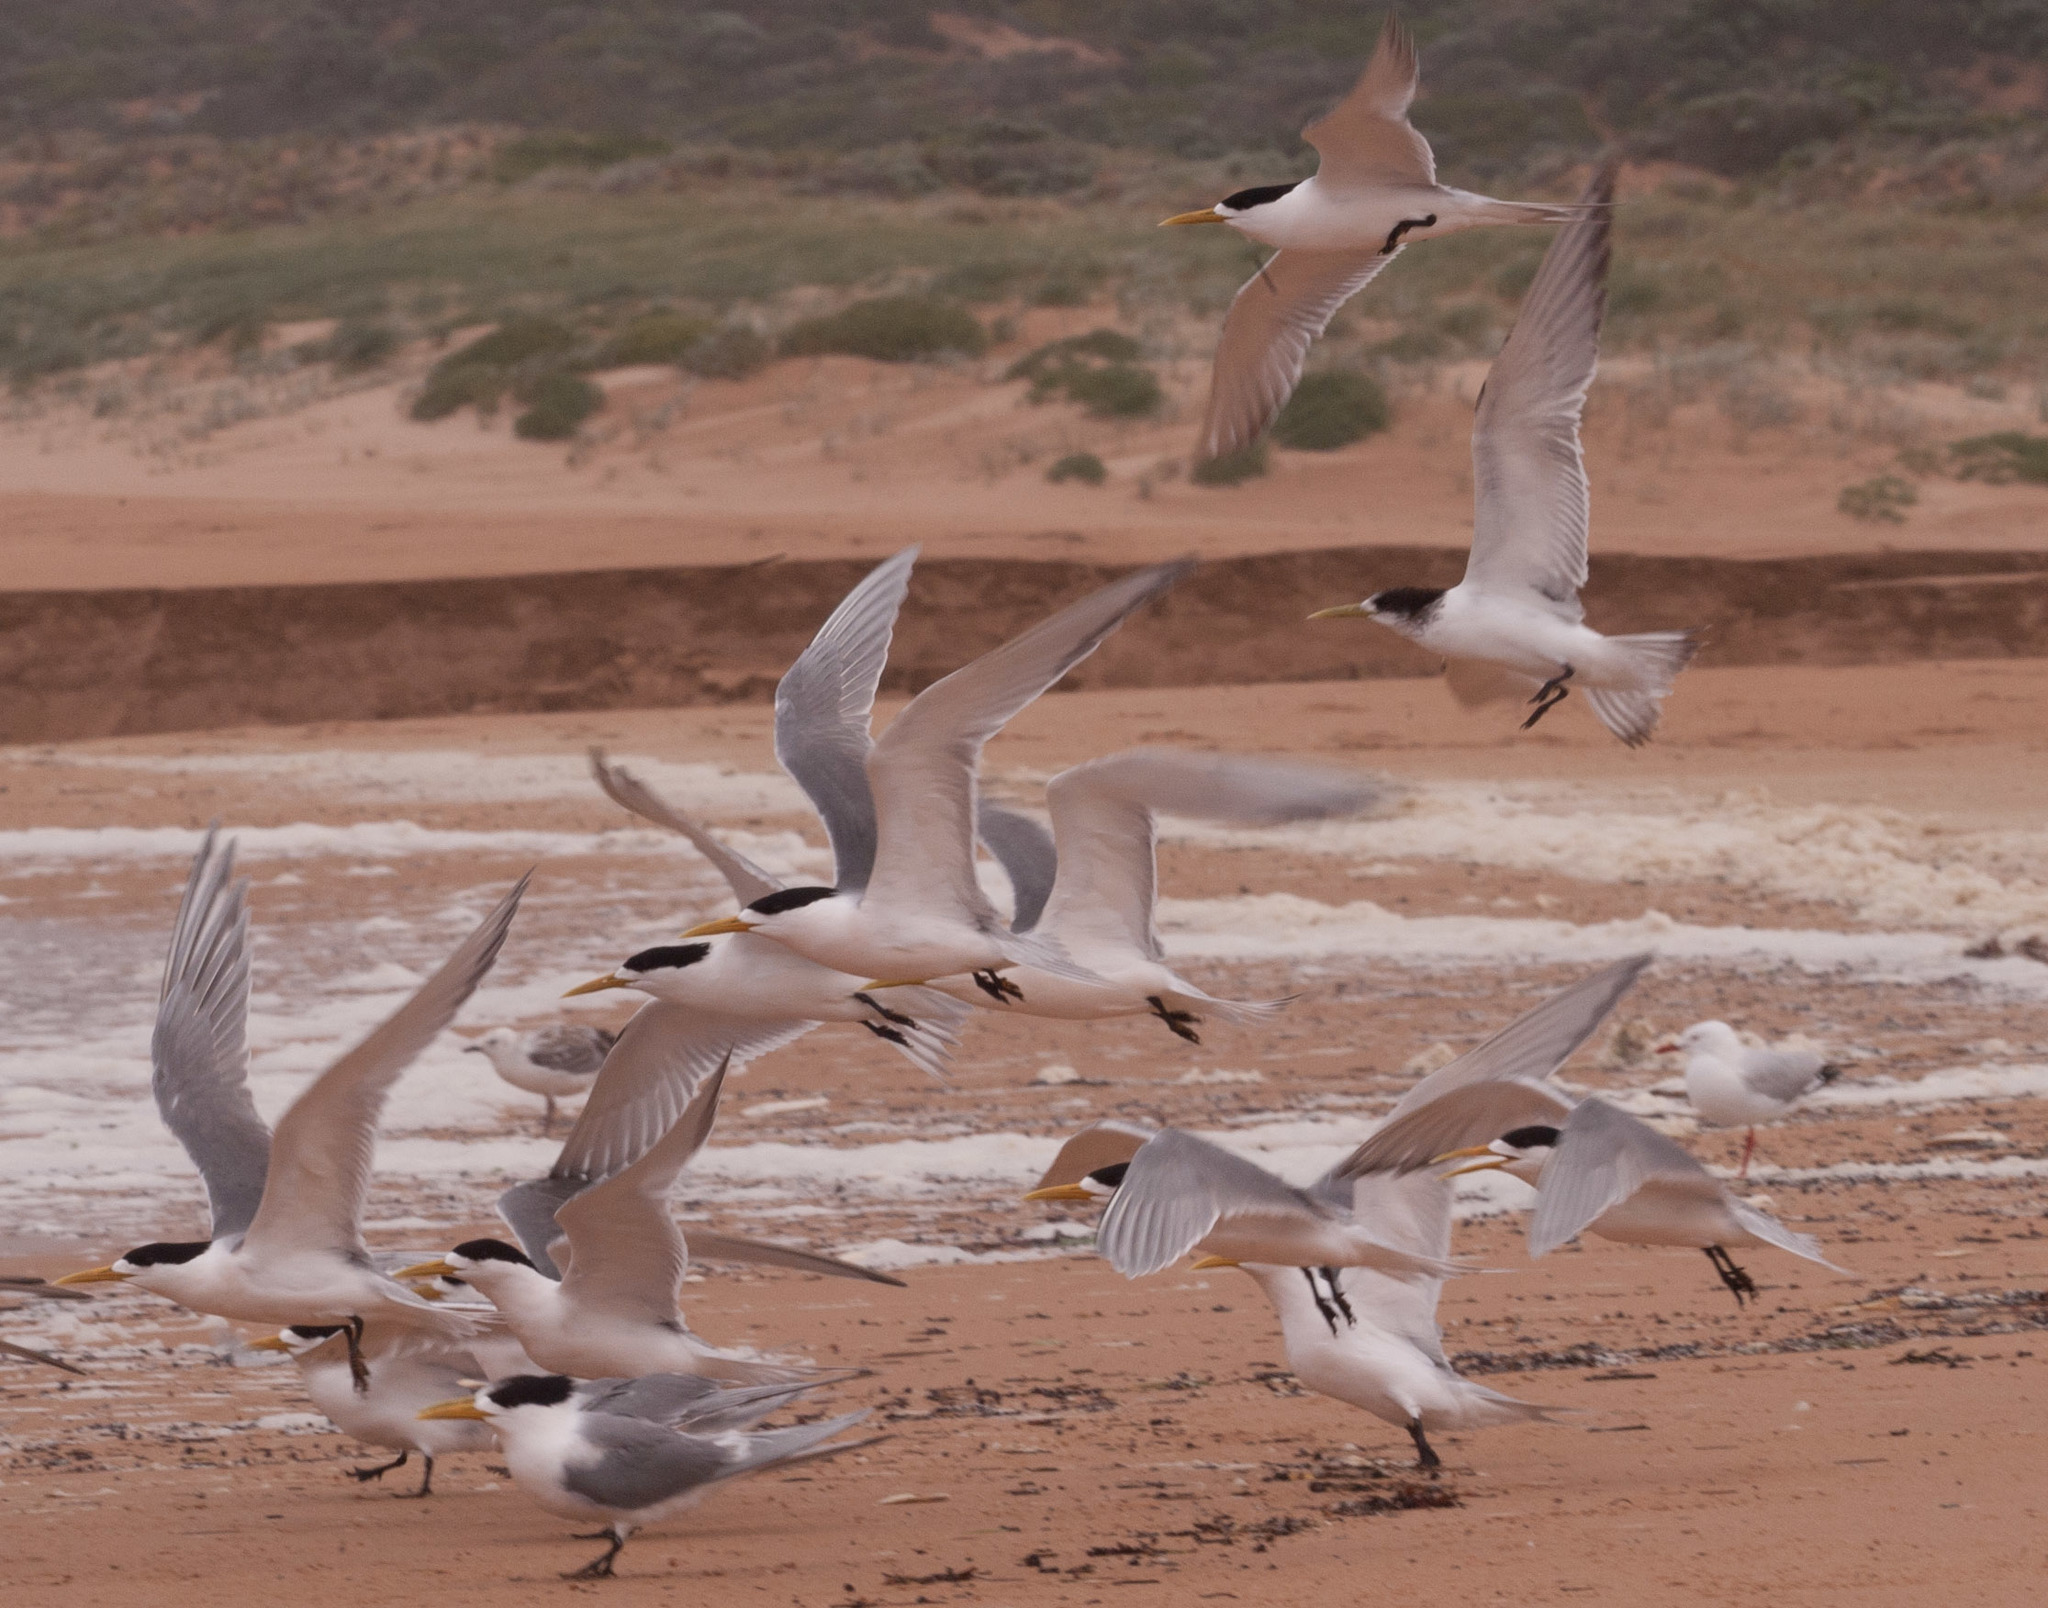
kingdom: Animalia
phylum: Chordata
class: Aves
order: Charadriiformes
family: Laridae
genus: Thalasseus
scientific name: Thalasseus bergii
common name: Greater crested tern
